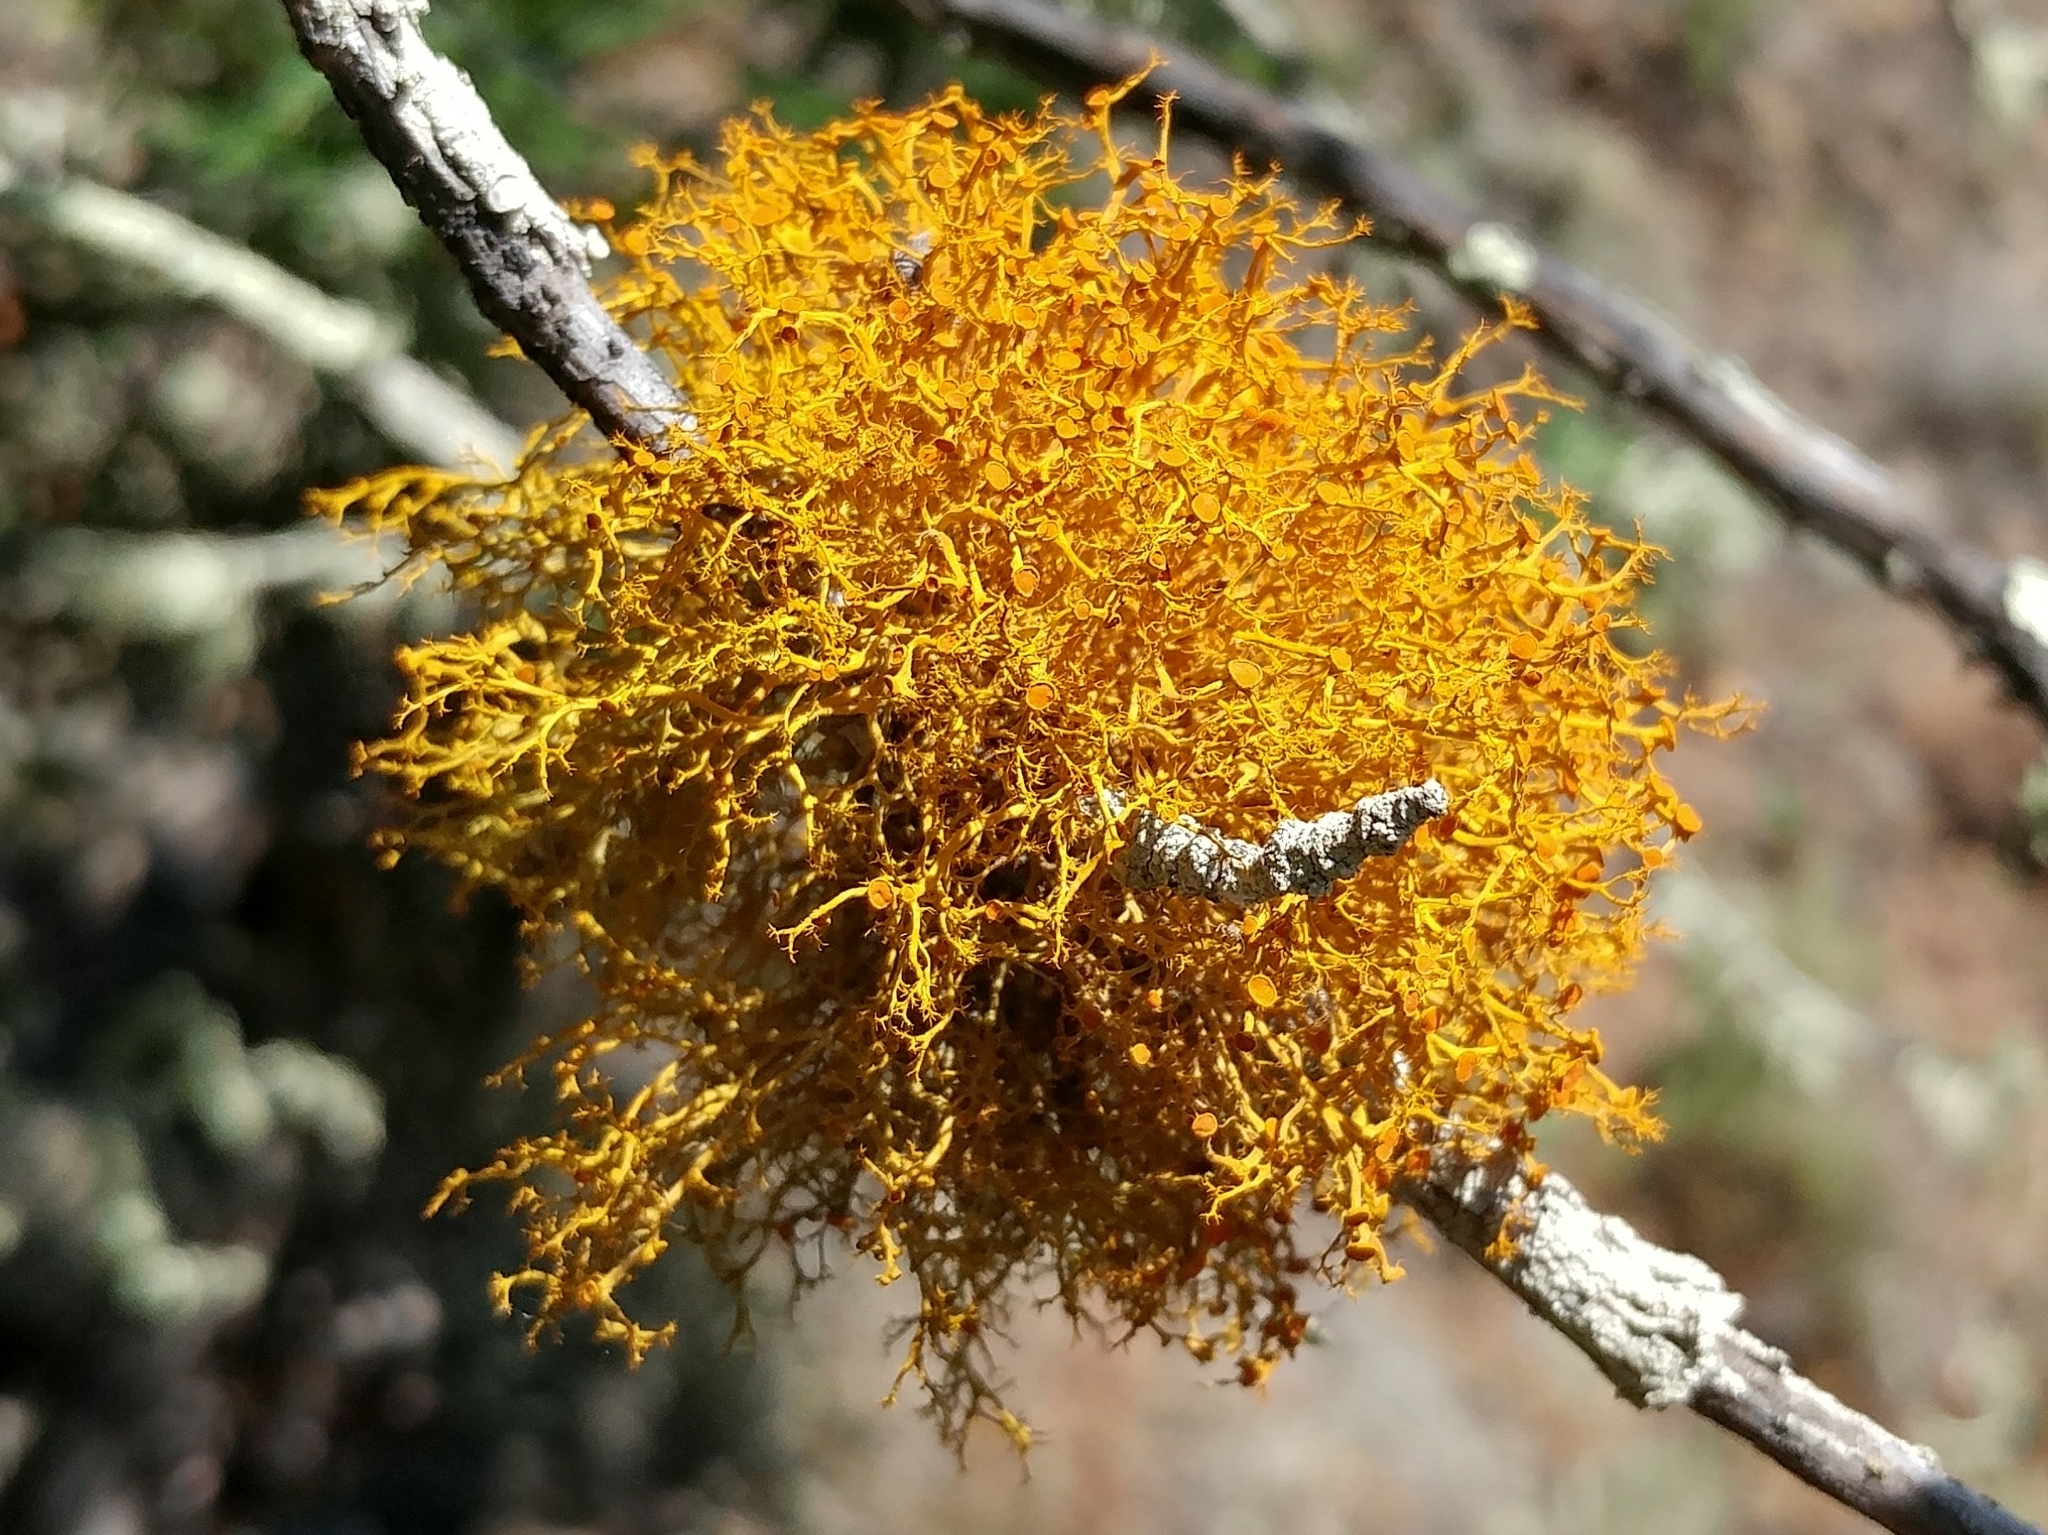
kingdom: Fungi
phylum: Ascomycota
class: Lecanoromycetes
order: Teloschistales
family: Teloschistaceae
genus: Teloschistes
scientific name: Teloschistes flavicans
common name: Golden hair-lichen
